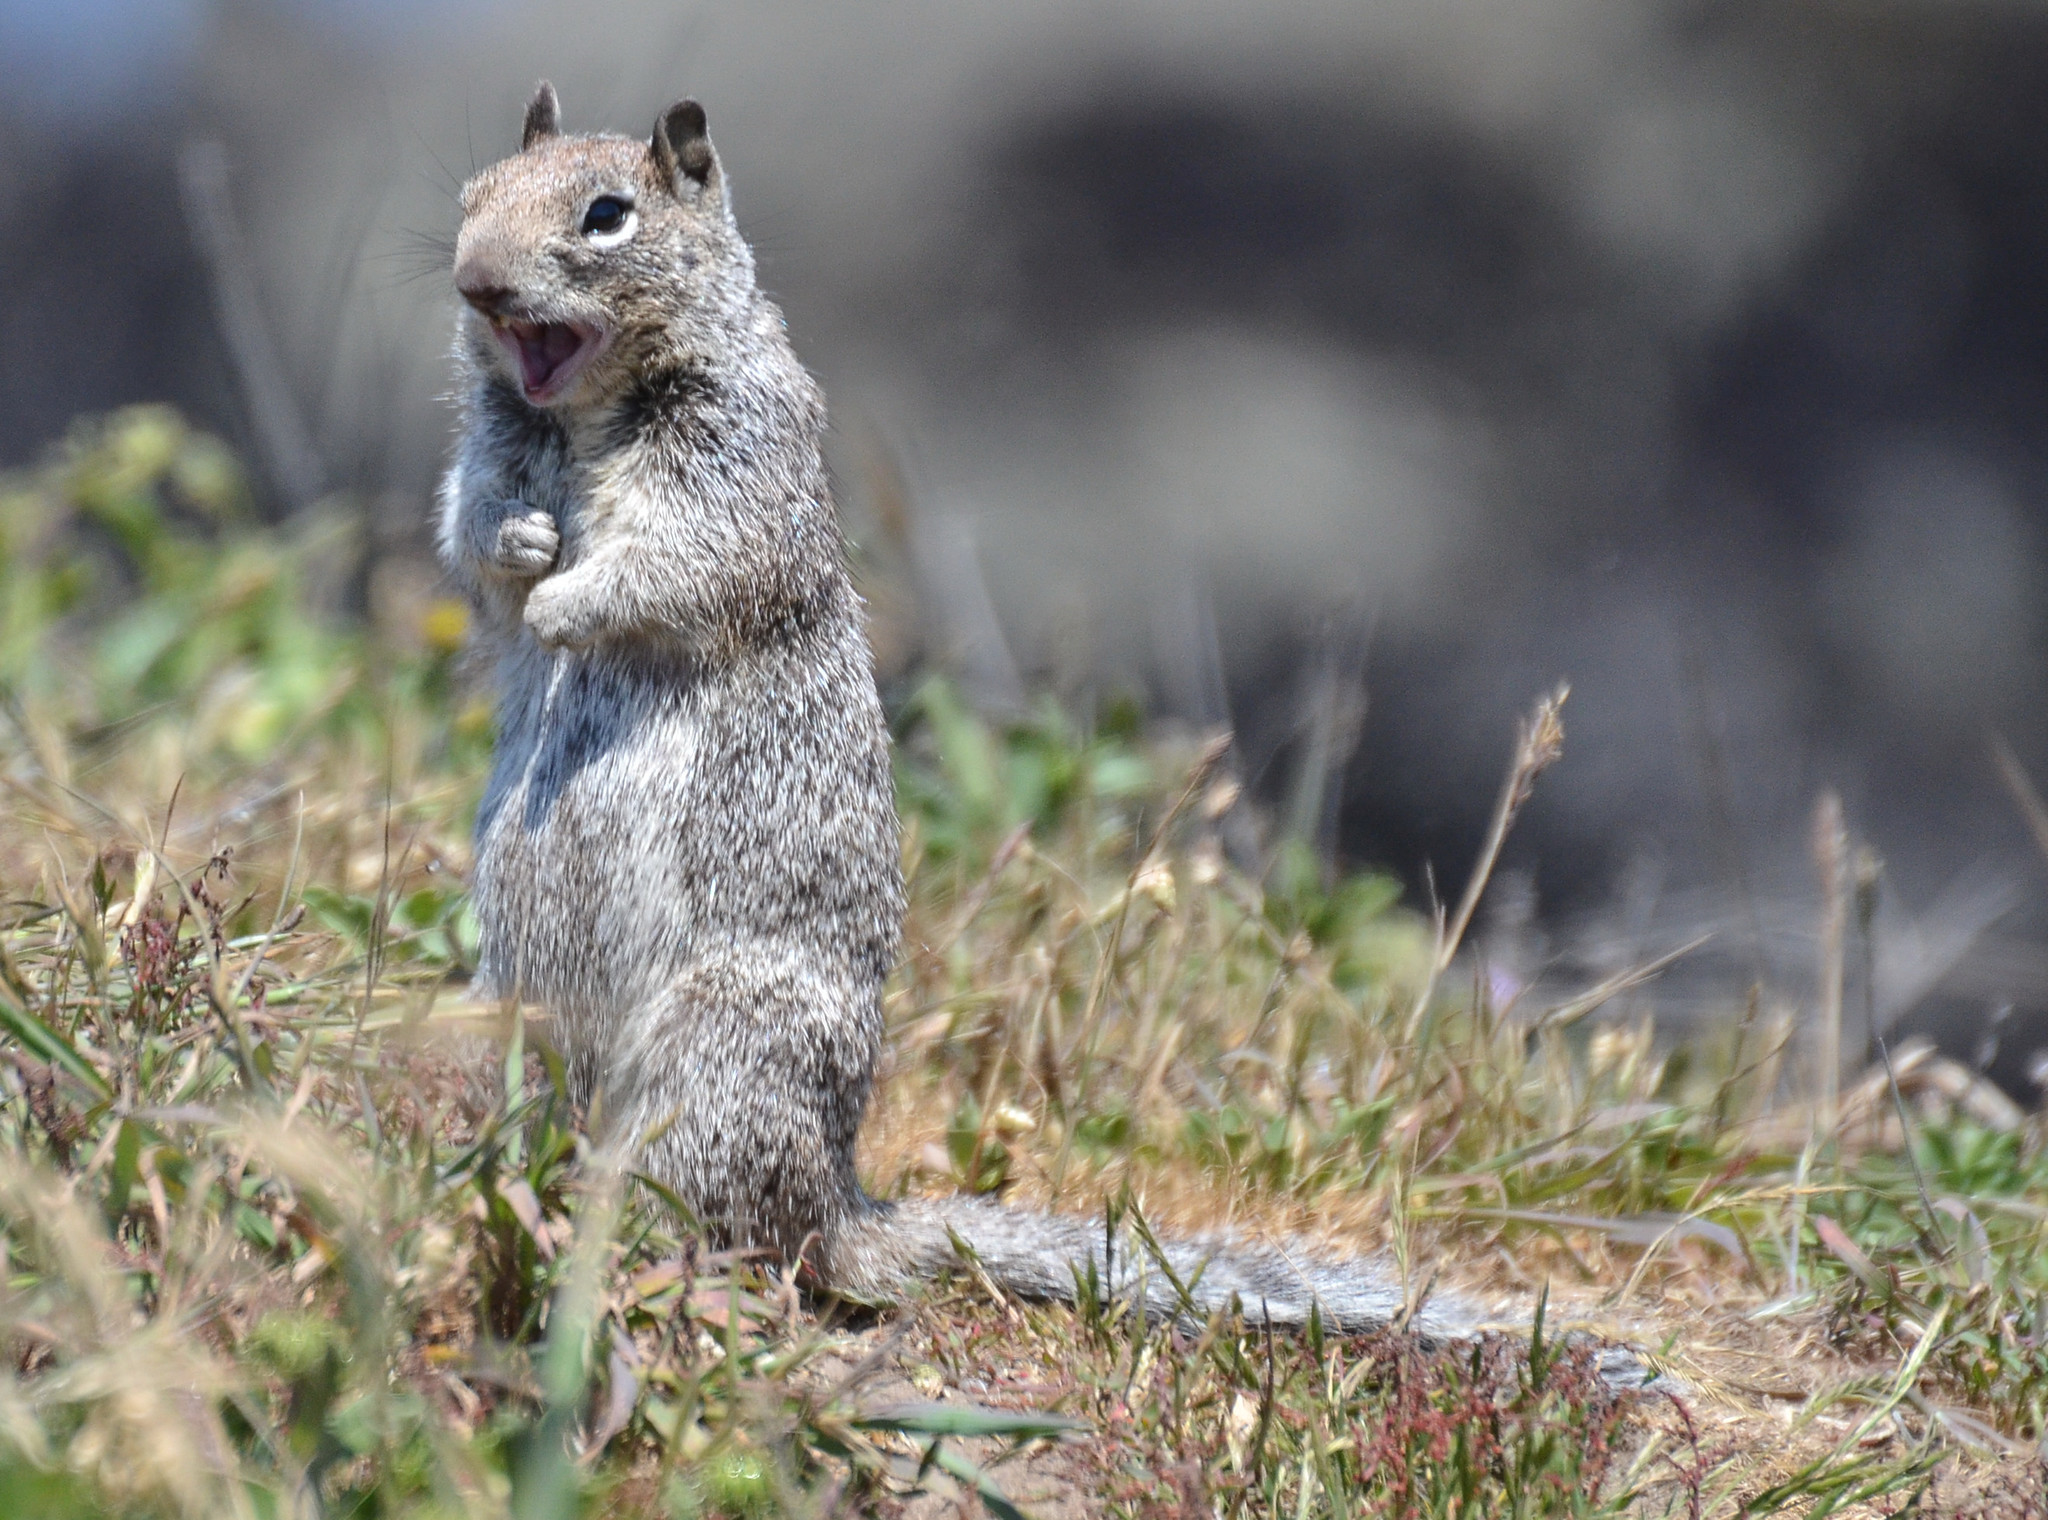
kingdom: Animalia
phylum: Chordata
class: Mammalia
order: Rodentia
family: Sciuridae
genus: Otospermophilus
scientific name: Otospermophilus beecheyi
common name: California ground squirrel
